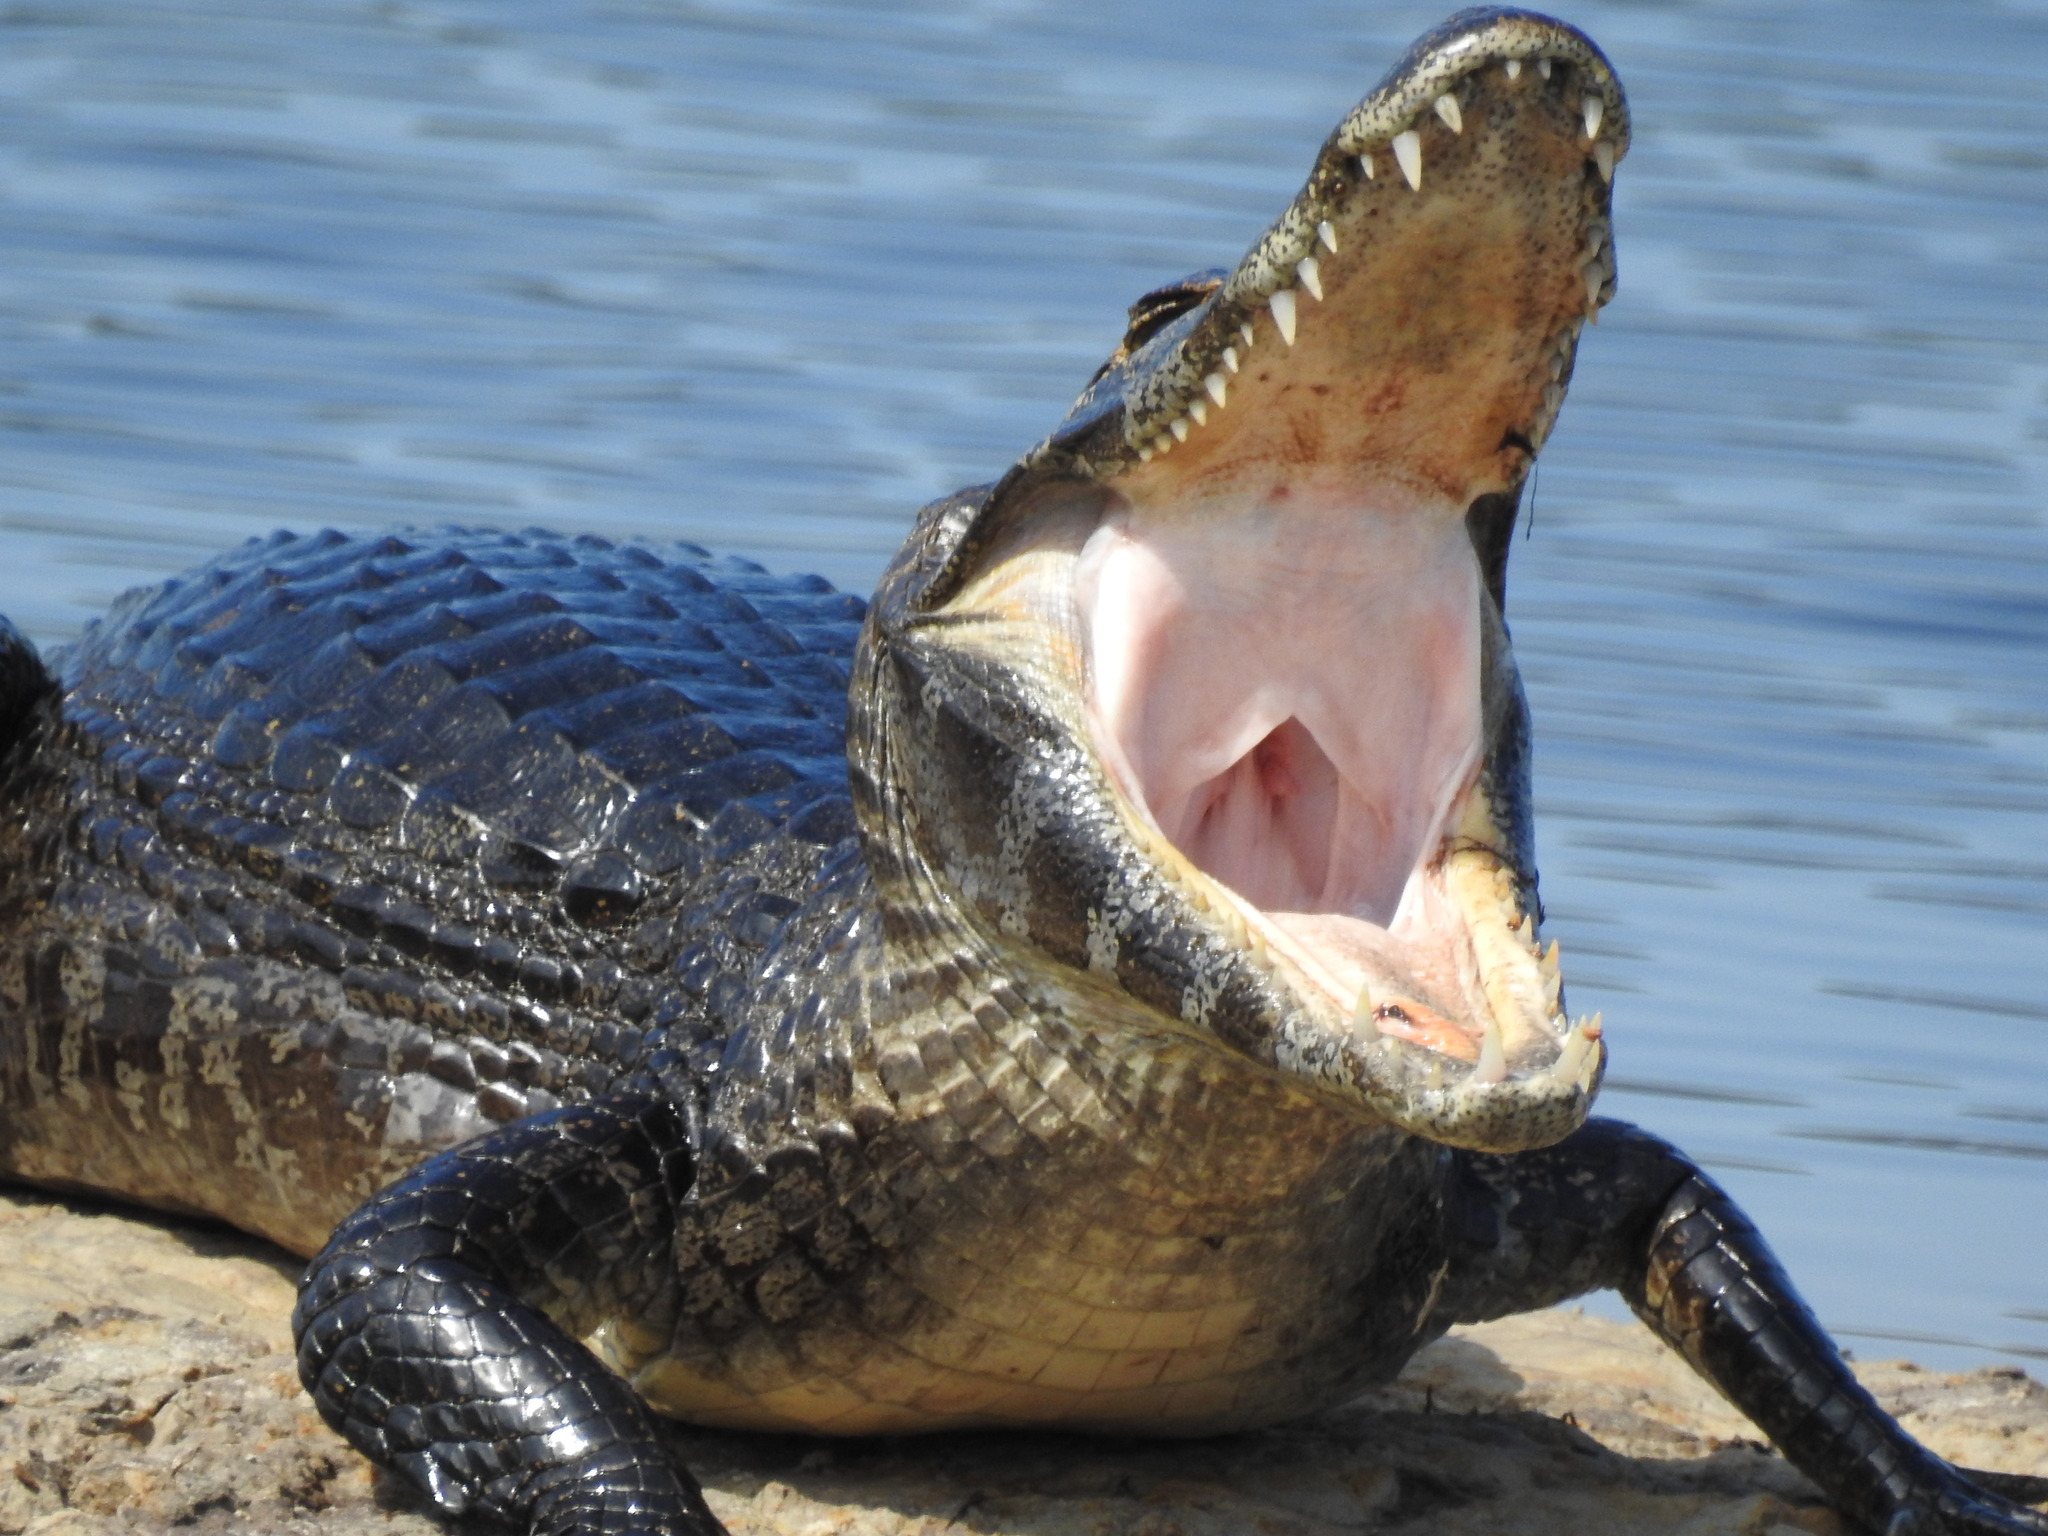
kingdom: Animalia
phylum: Chordata
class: Crocodylia
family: Alligatoridae
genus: Caiman
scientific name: Caiman yacare
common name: Yacare caiman
